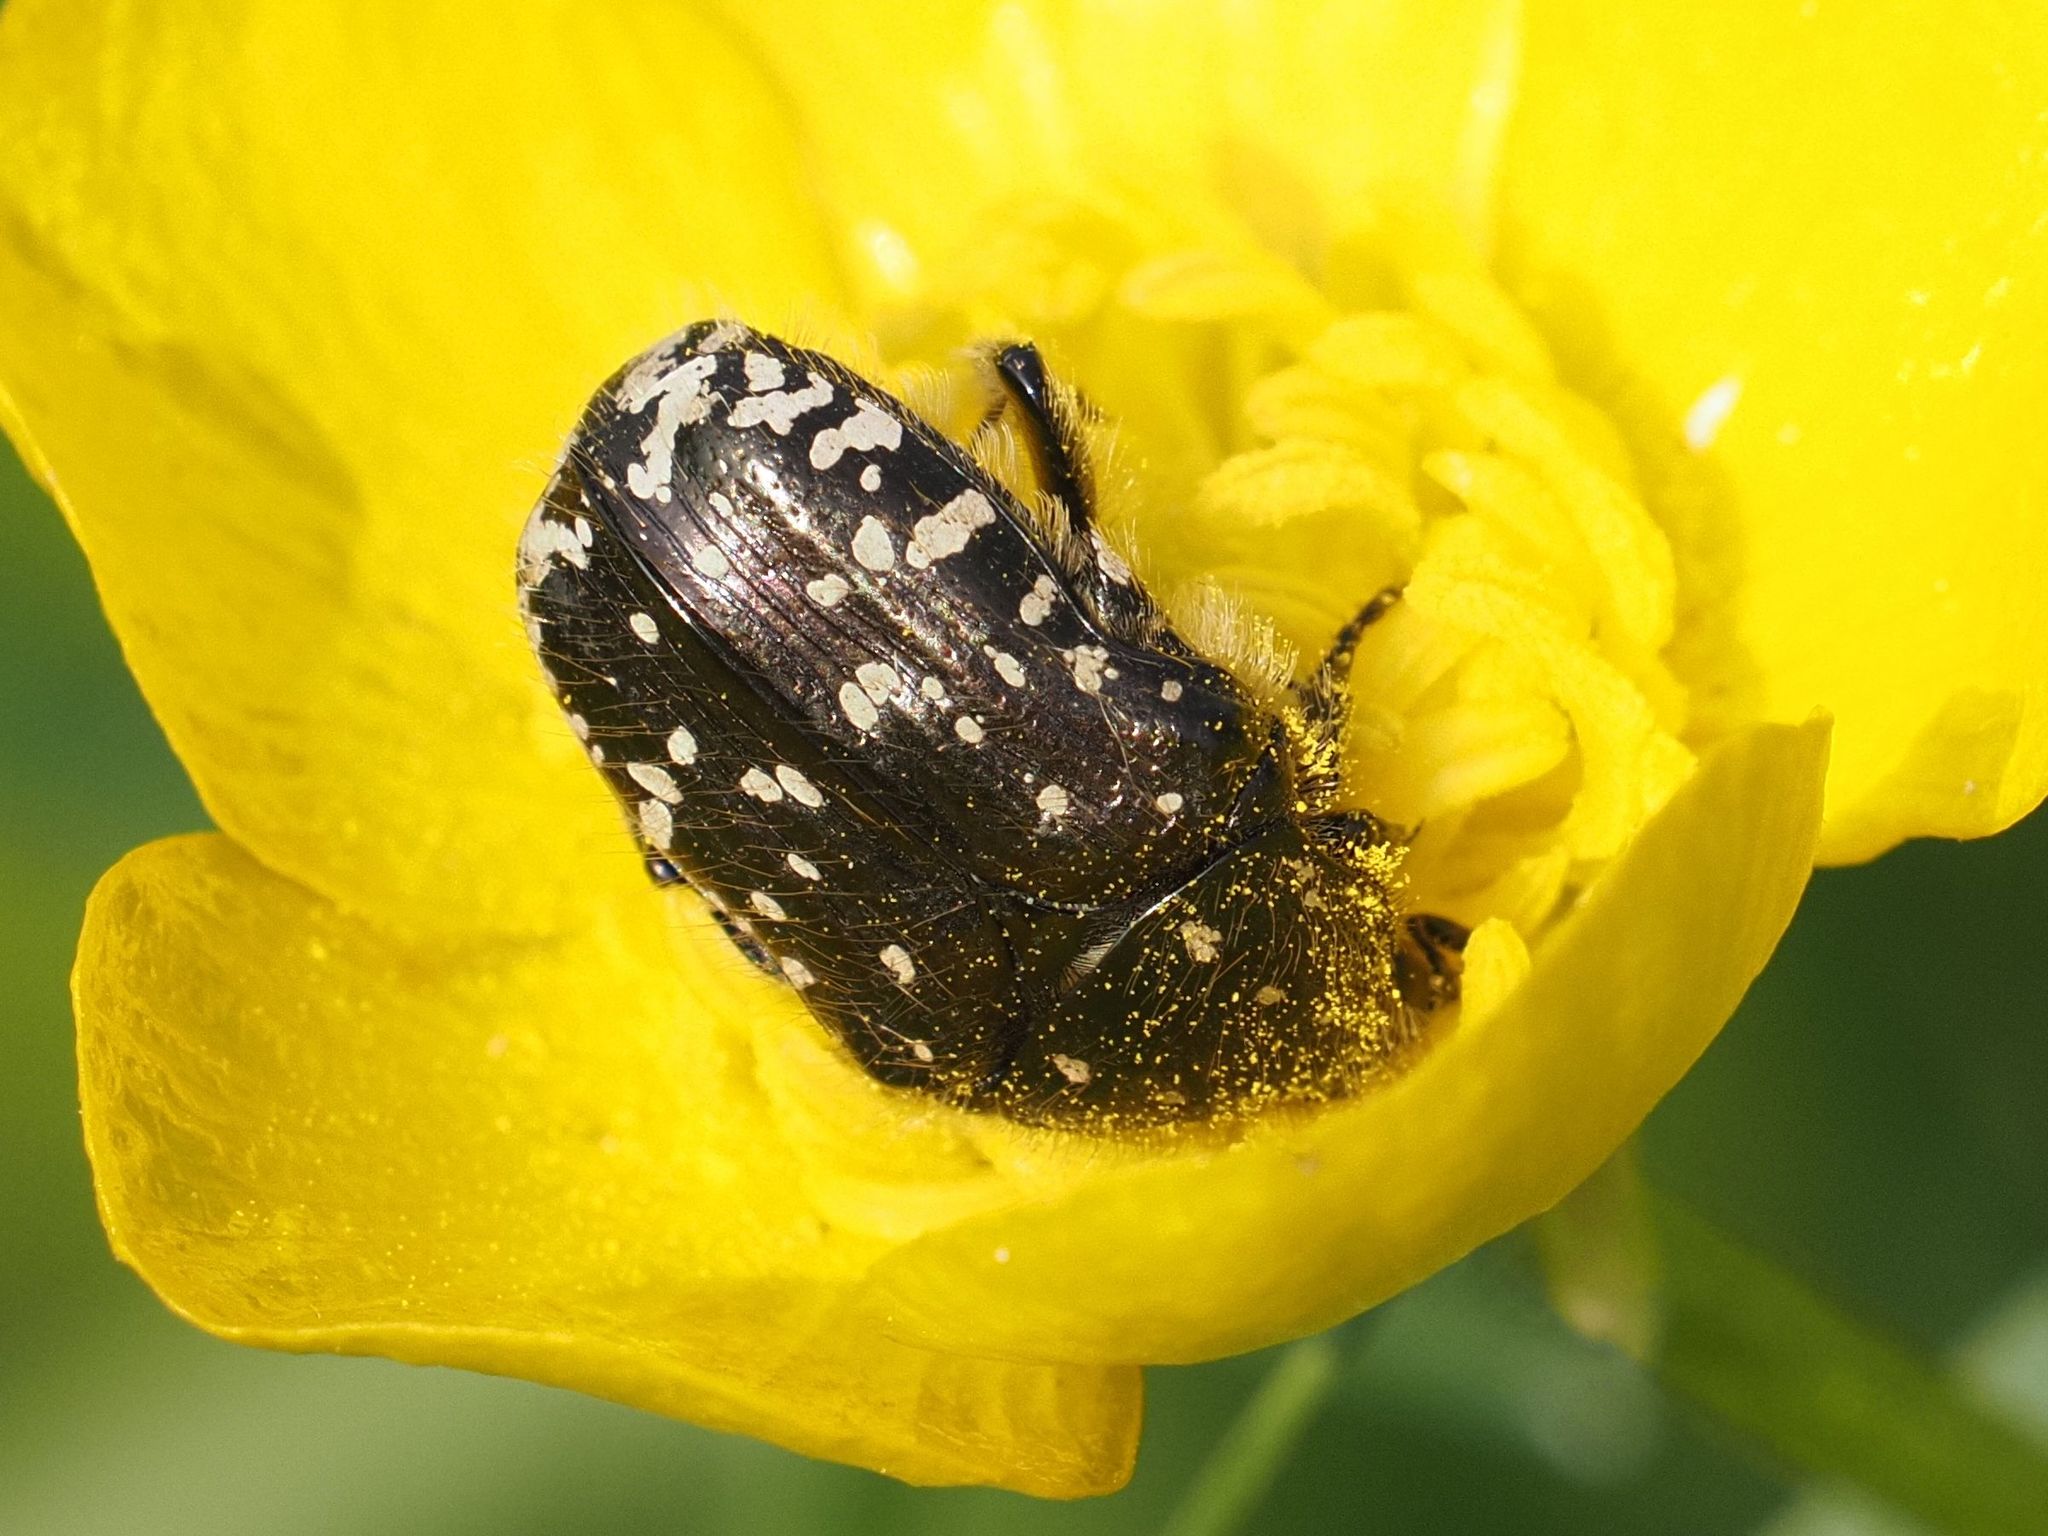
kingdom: Animalia
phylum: Arthropoda
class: Insecta
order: Coleoptera
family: Scarabaeidae
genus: Oxythyrea
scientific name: Oxythyrea funesta
